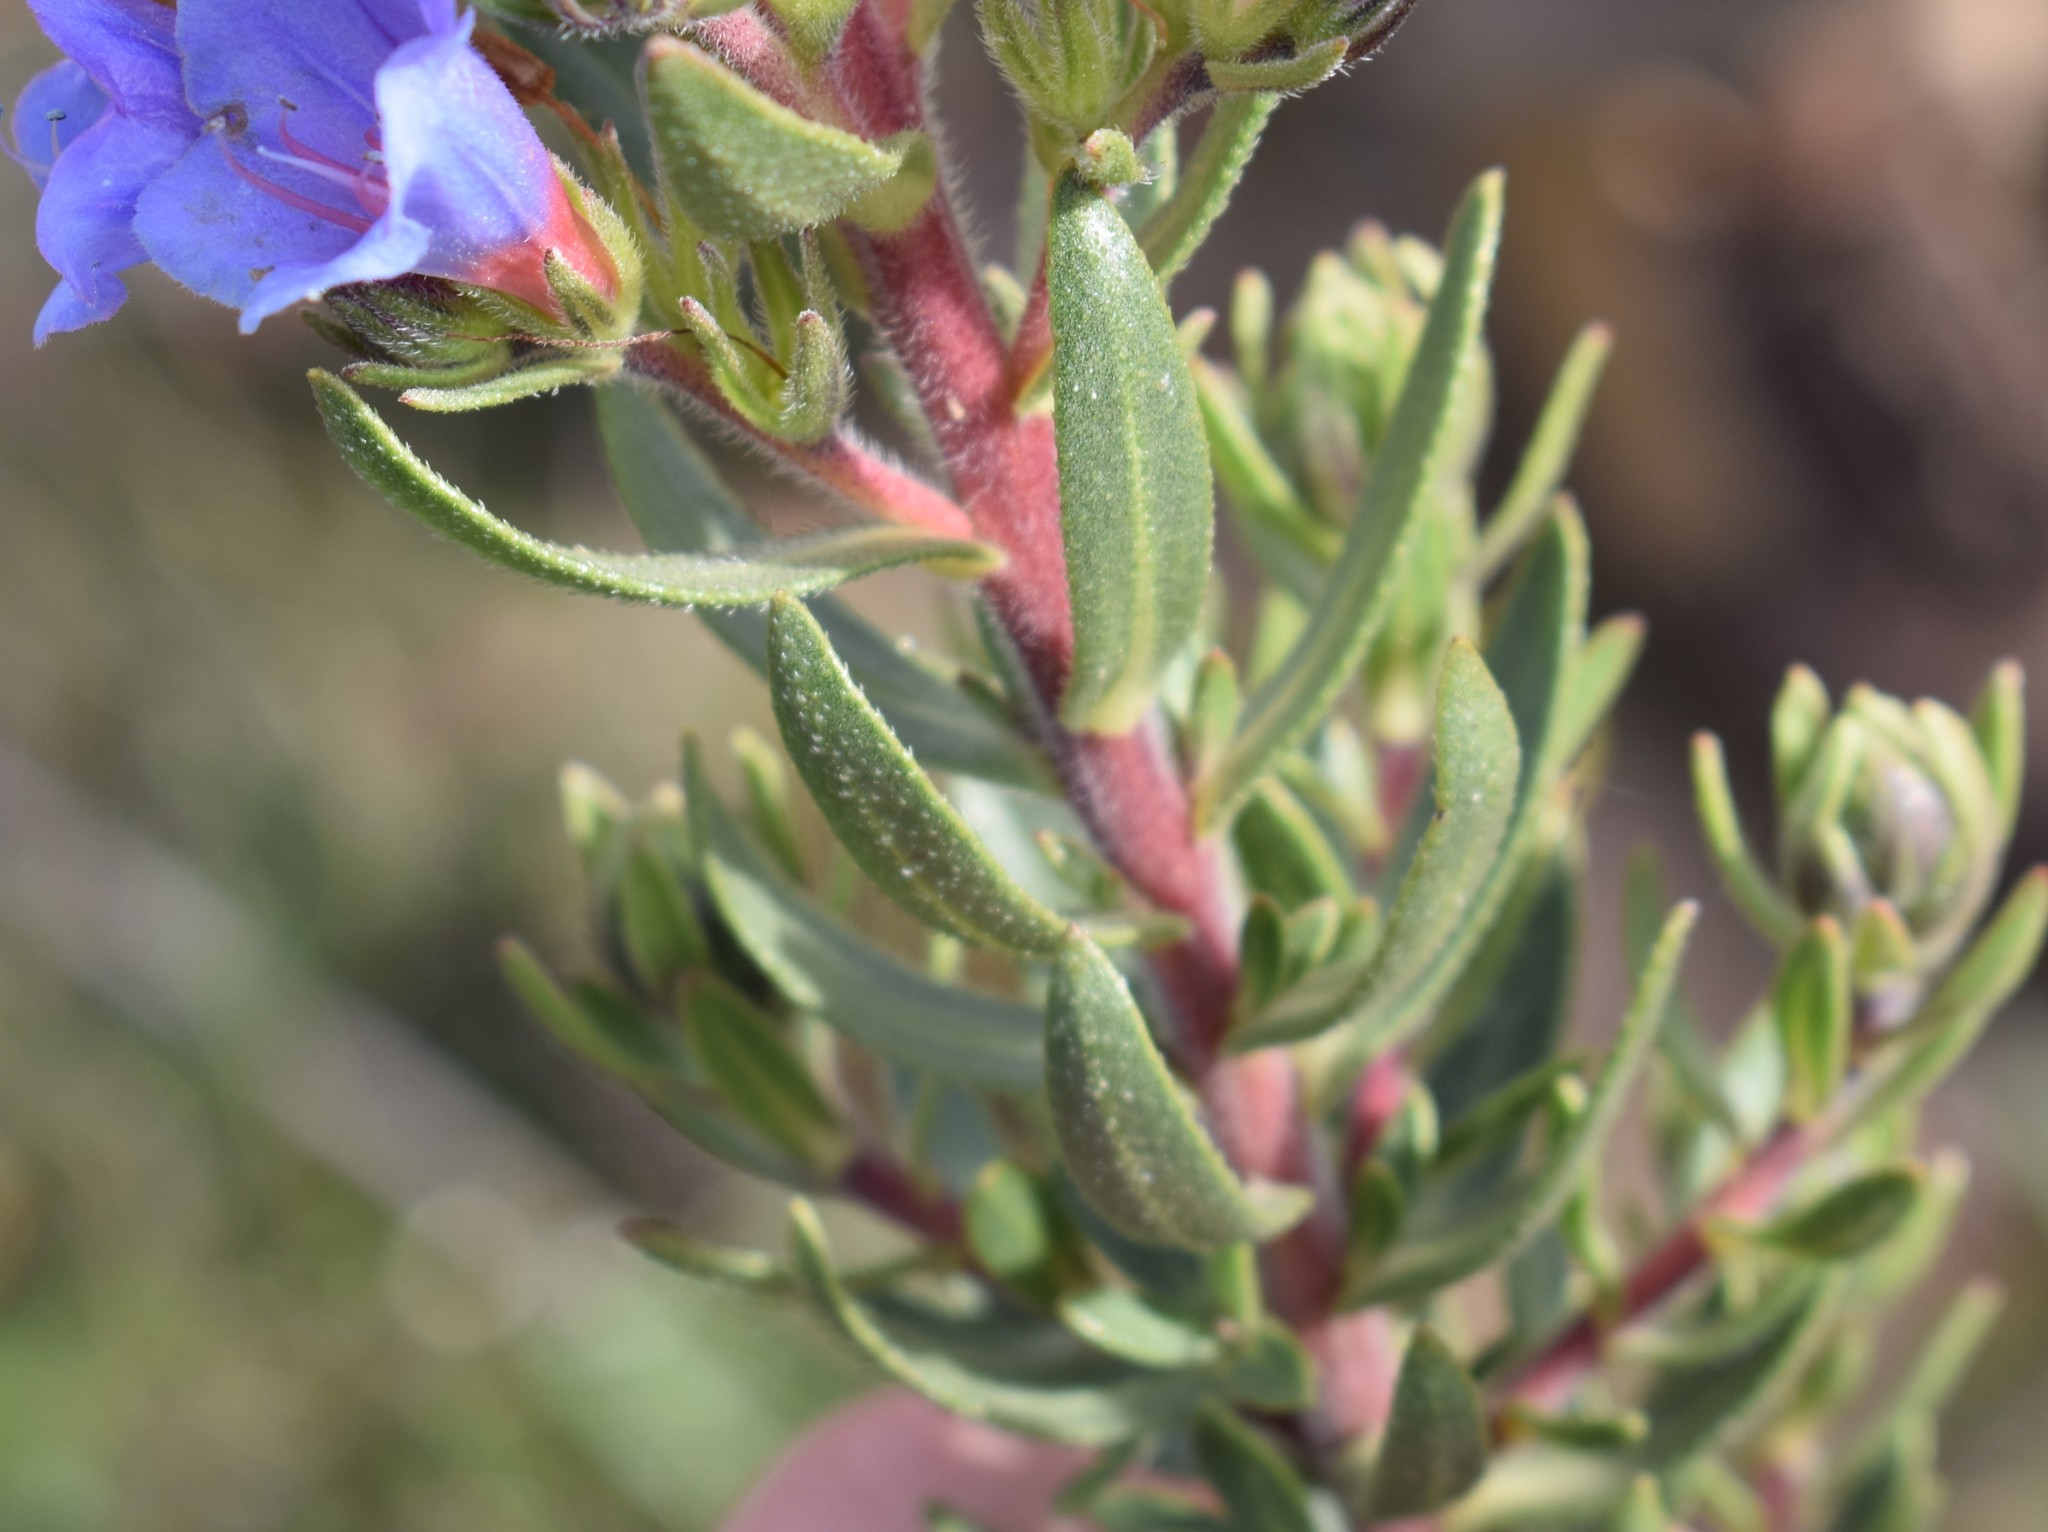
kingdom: Plantae
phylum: Tracheophyta
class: Magnoliopsida
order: Boraginales
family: Boraginaceae
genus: Lobostemon
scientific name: Lobostemon fruticosus
